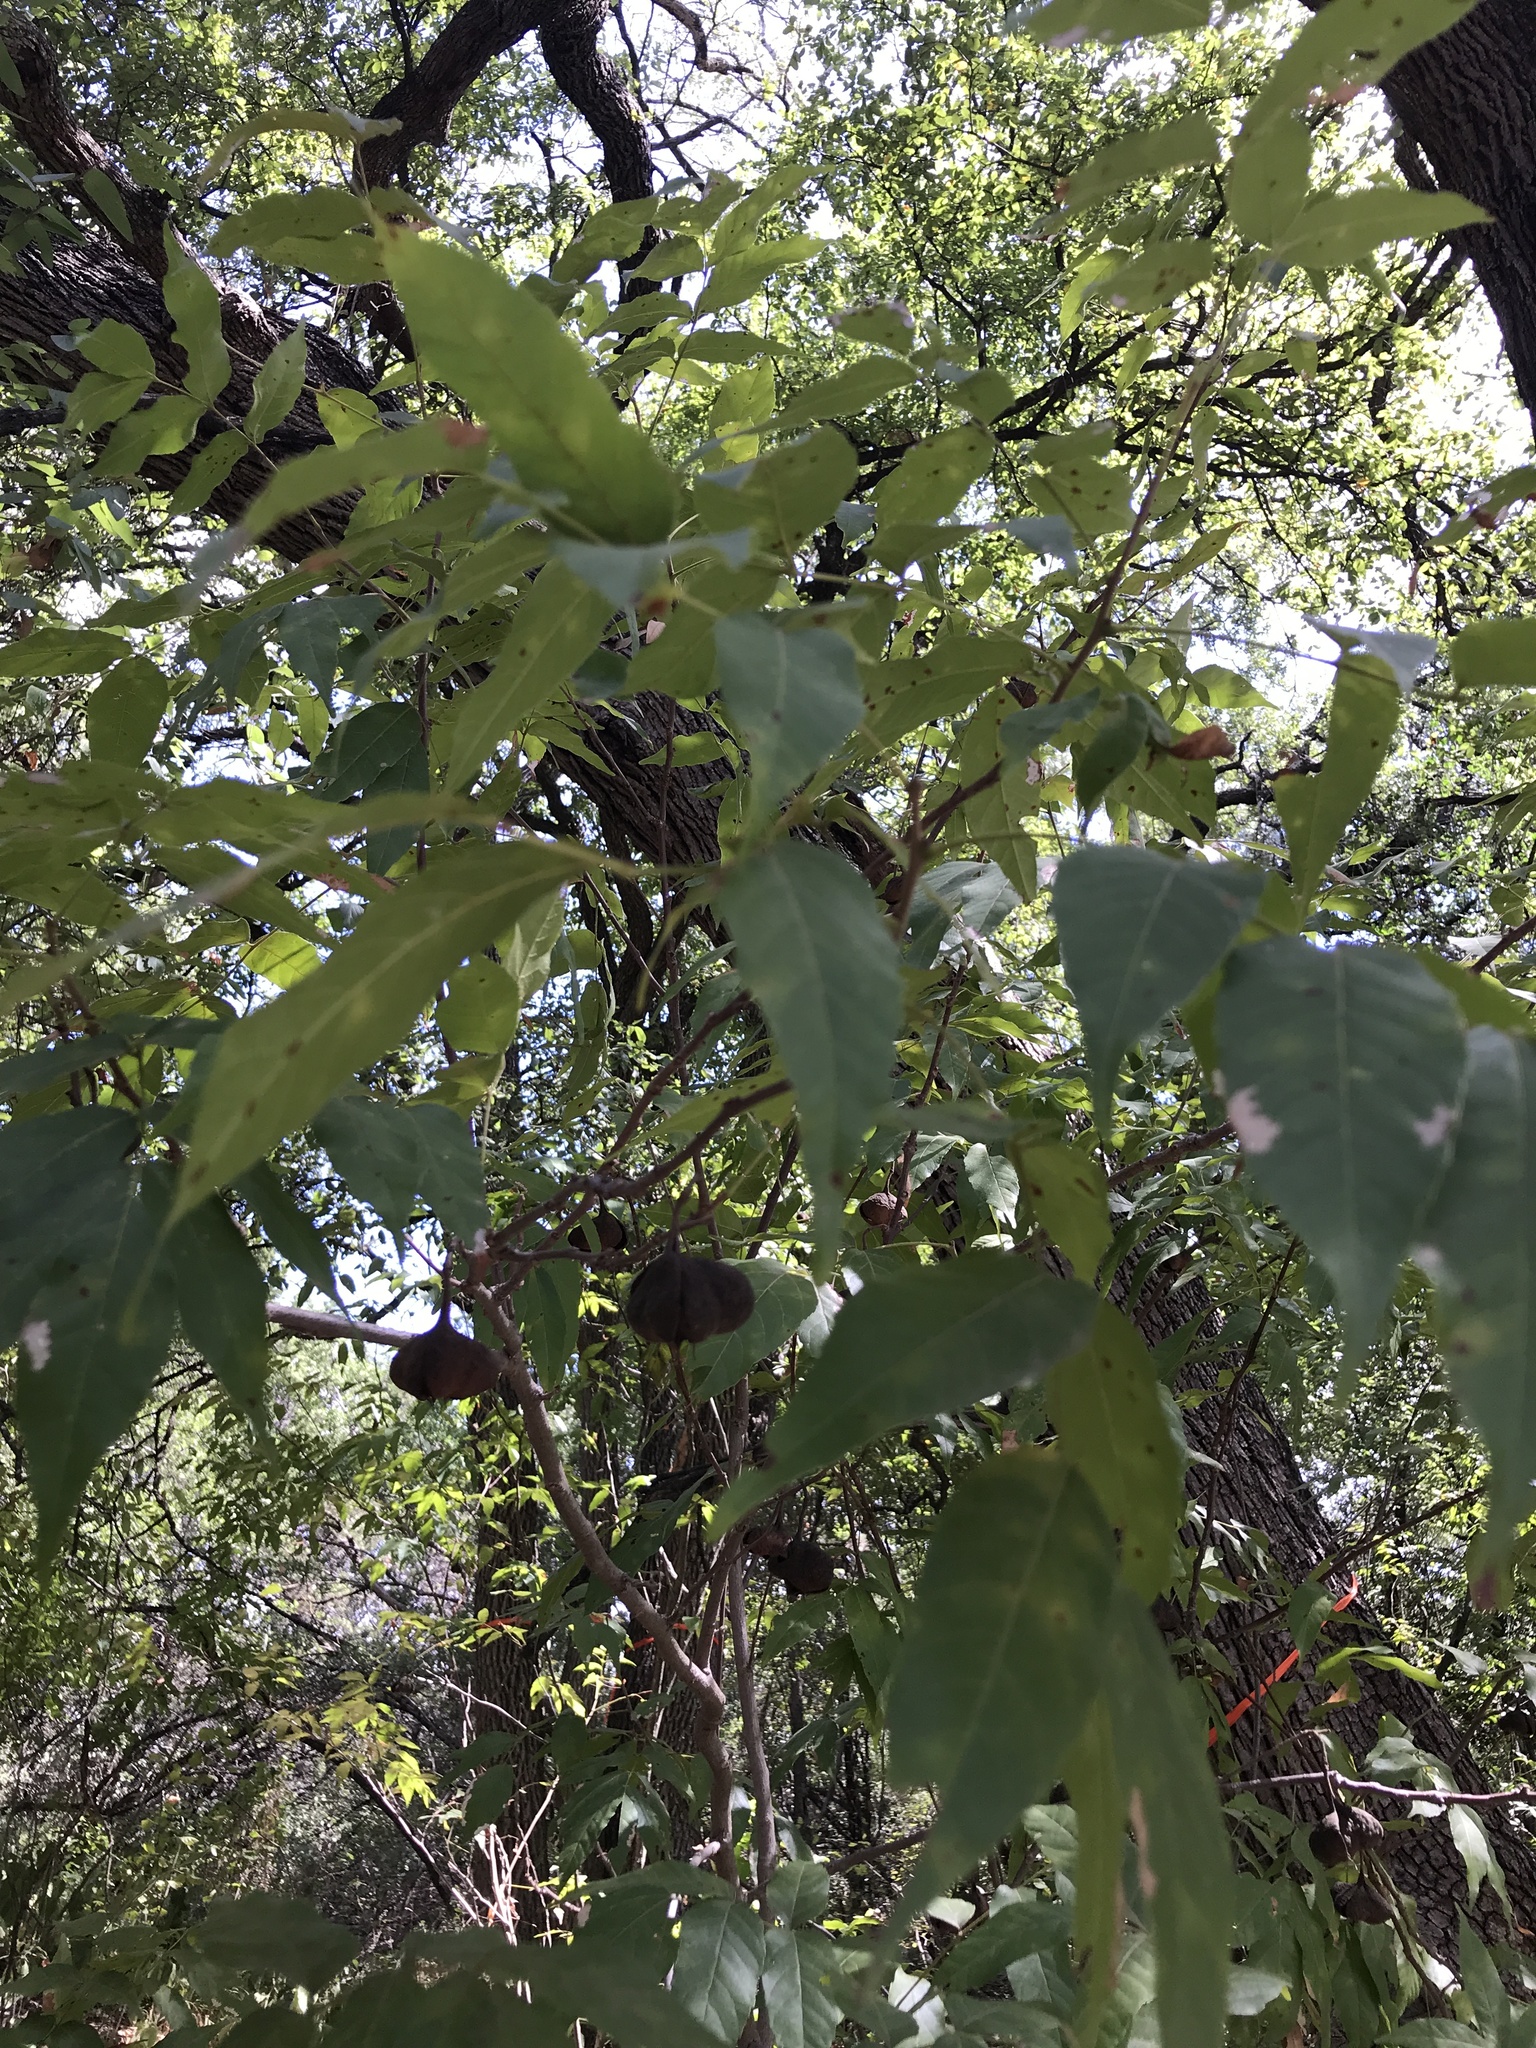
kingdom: Plantae
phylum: Tracheophyta
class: Magnoliopsida
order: Sapindales
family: Sapindaceae
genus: Ungnadia
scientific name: Ungnadia speciosa
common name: Texas-buckeye
